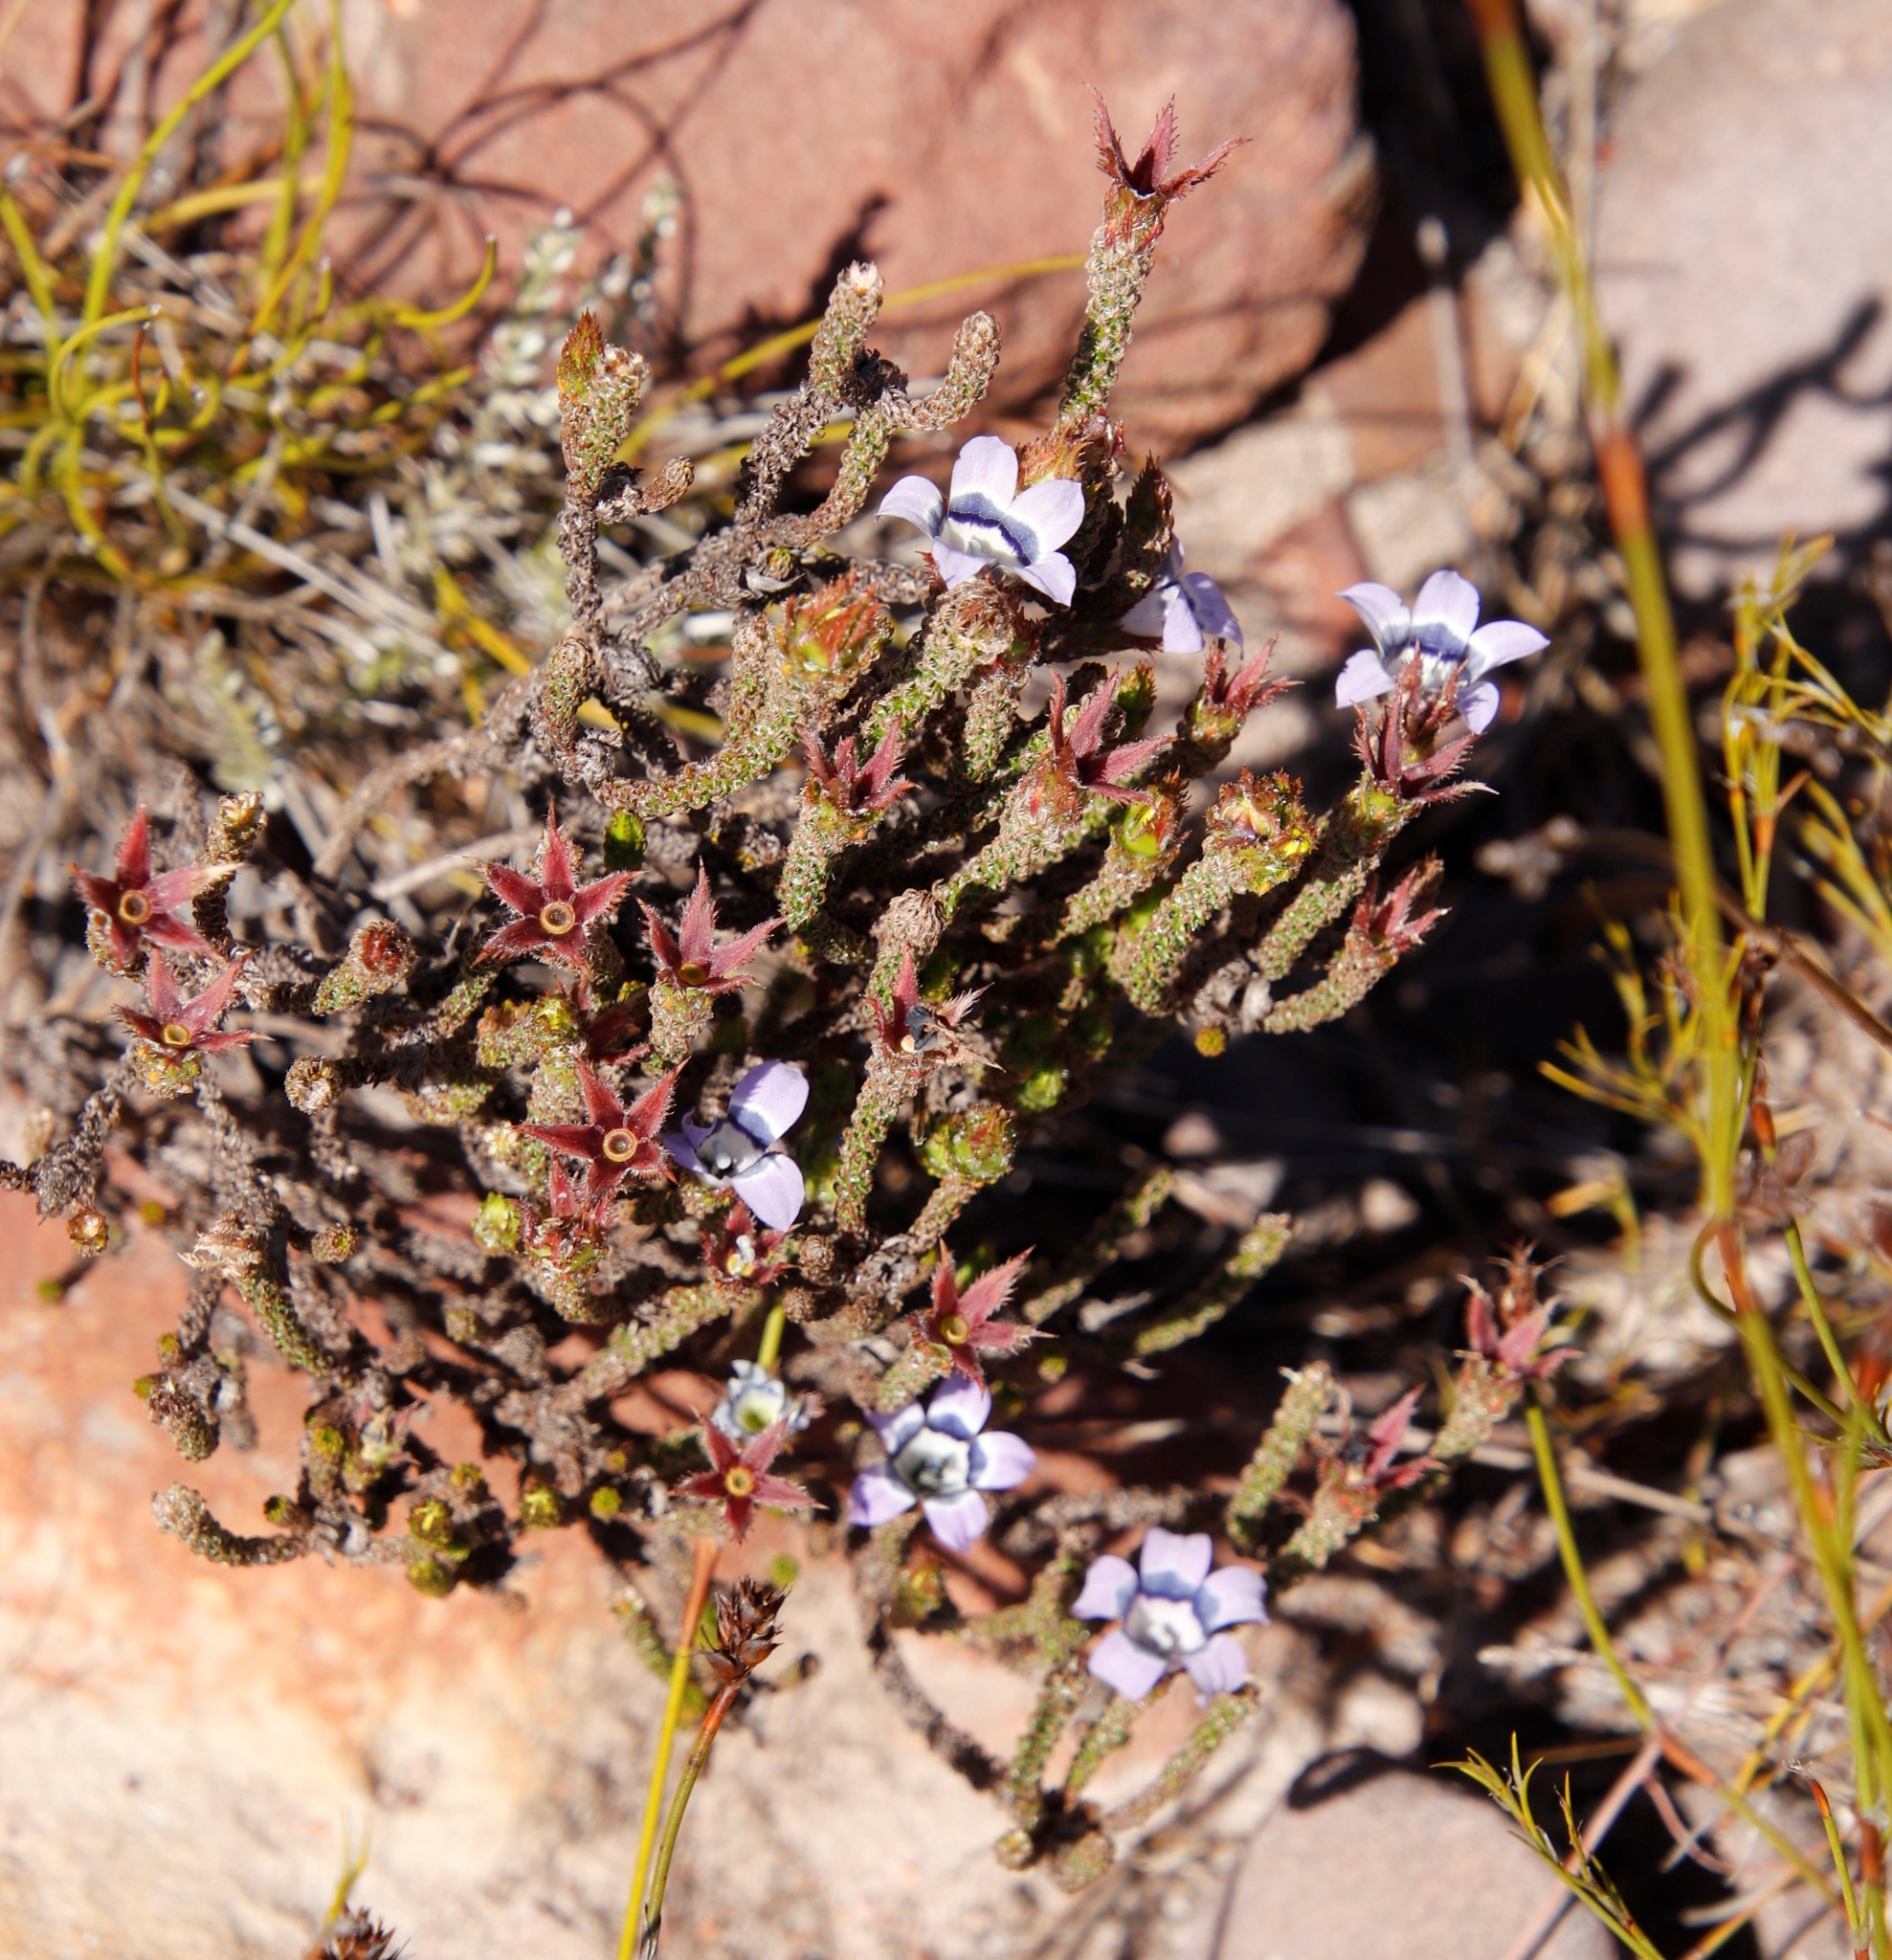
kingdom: Plantae
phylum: Tracheophyta
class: Magnoliopsida
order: Asterales
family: Campanulaceae
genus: Roella
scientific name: Roella ciliata
